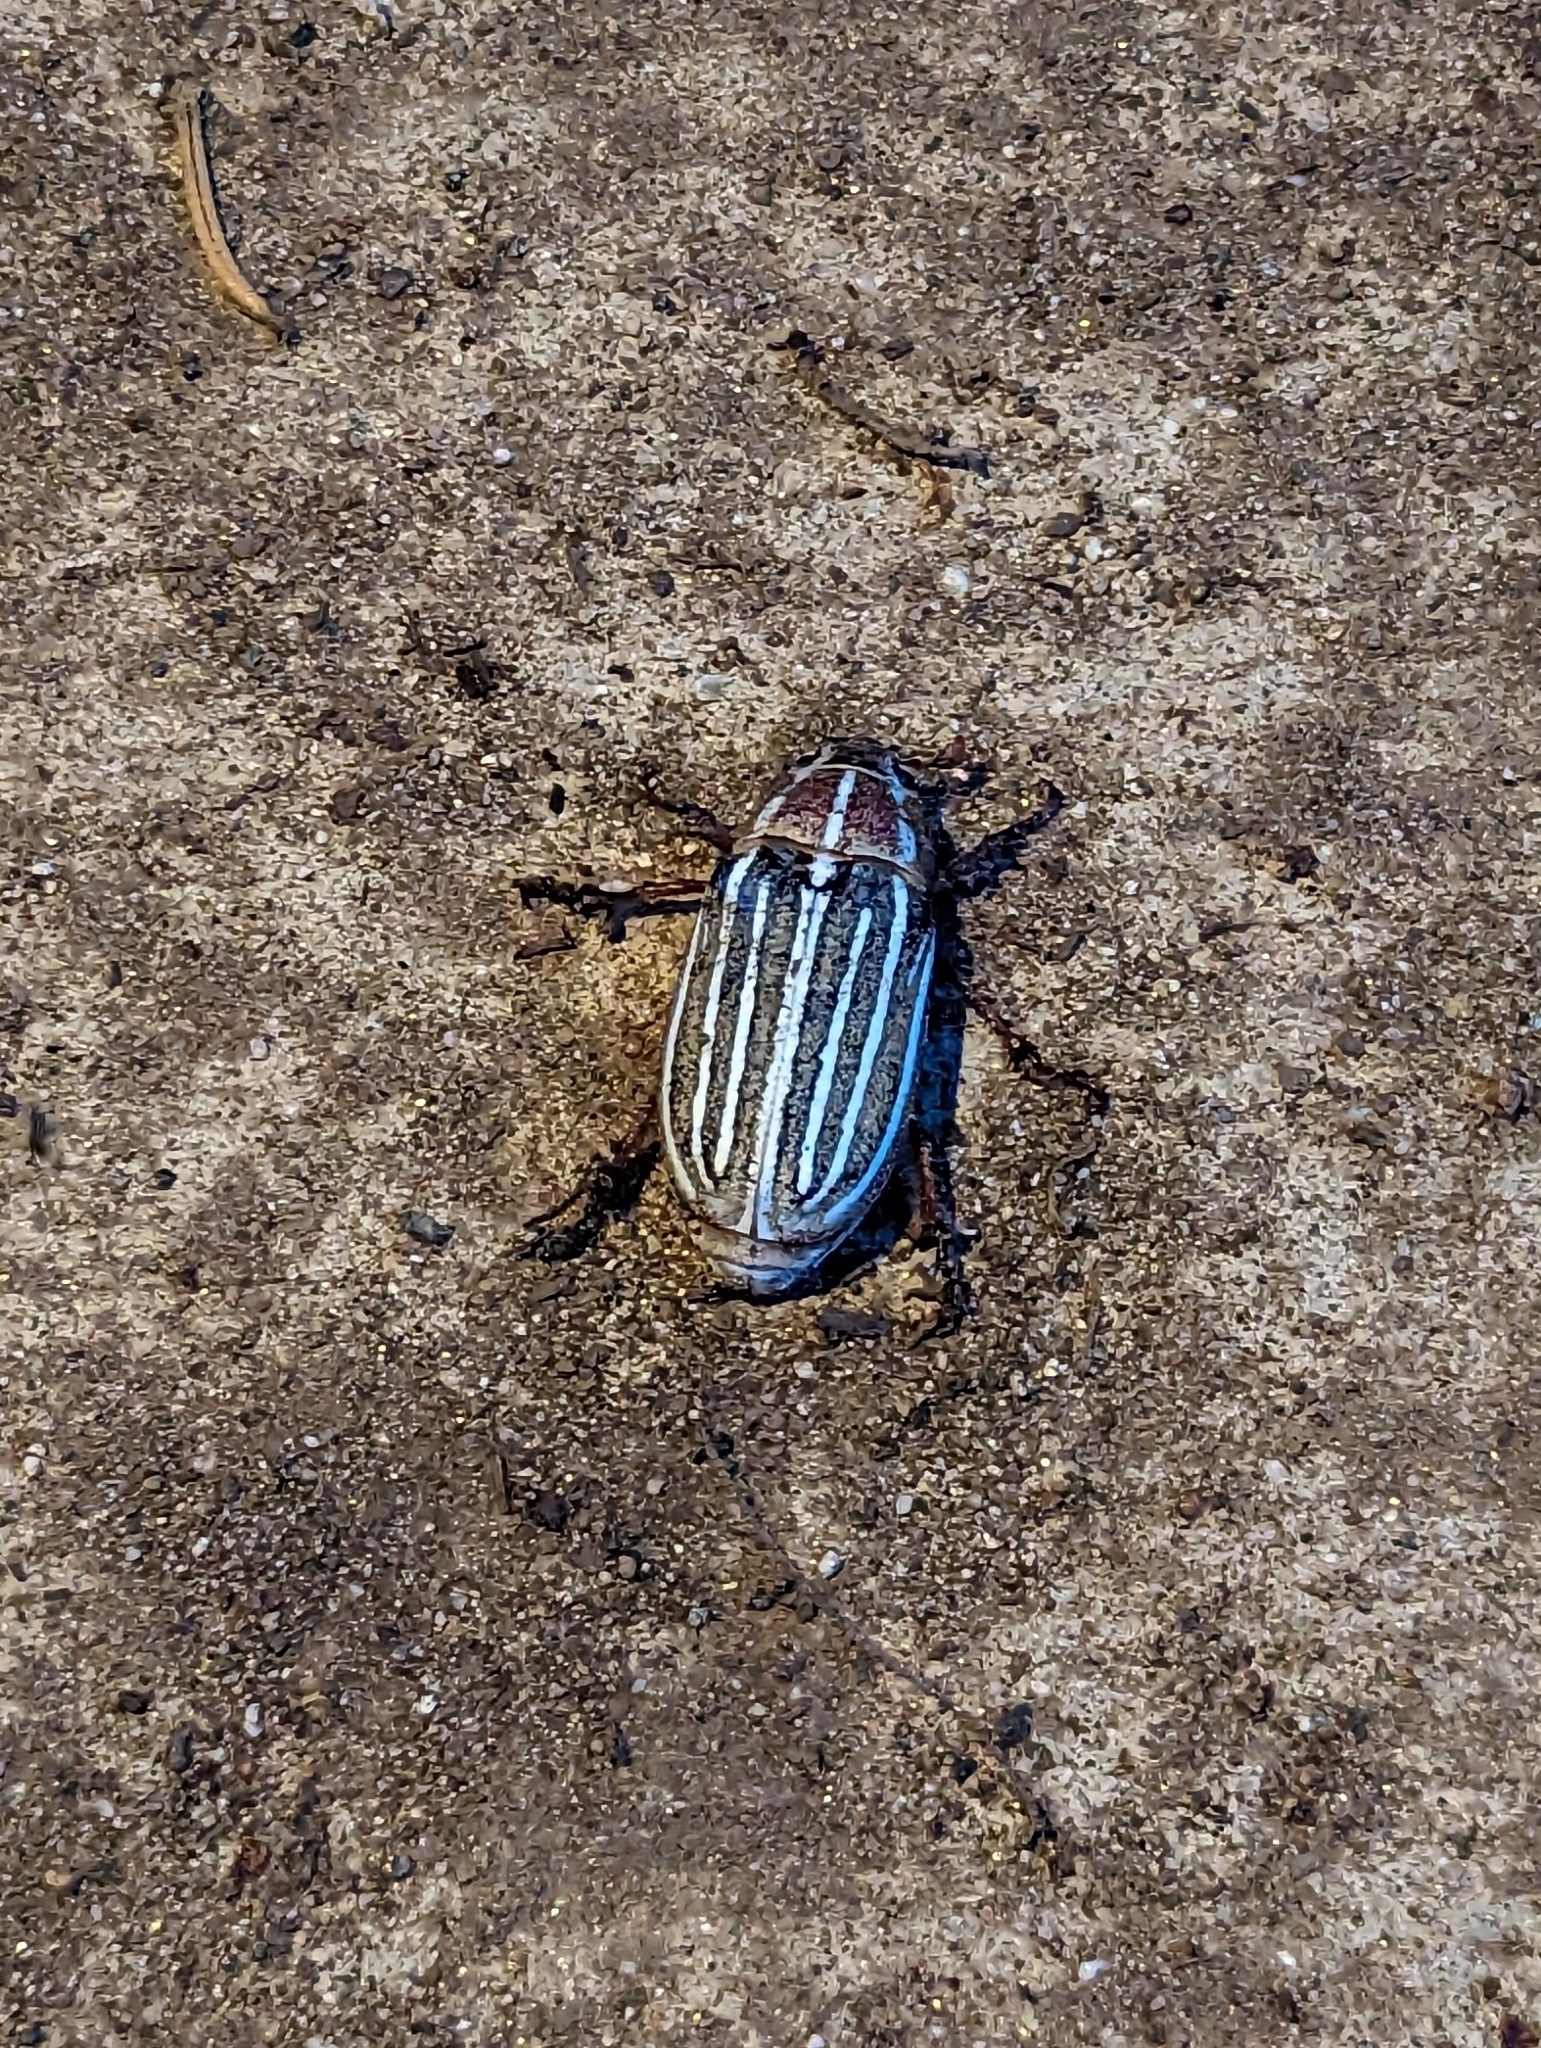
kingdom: Animalia
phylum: Arthropoda
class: Insecta
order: Coleoptera
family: Scarabaeidae
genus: Polyphylla
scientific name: Polyphylla decemlineata
